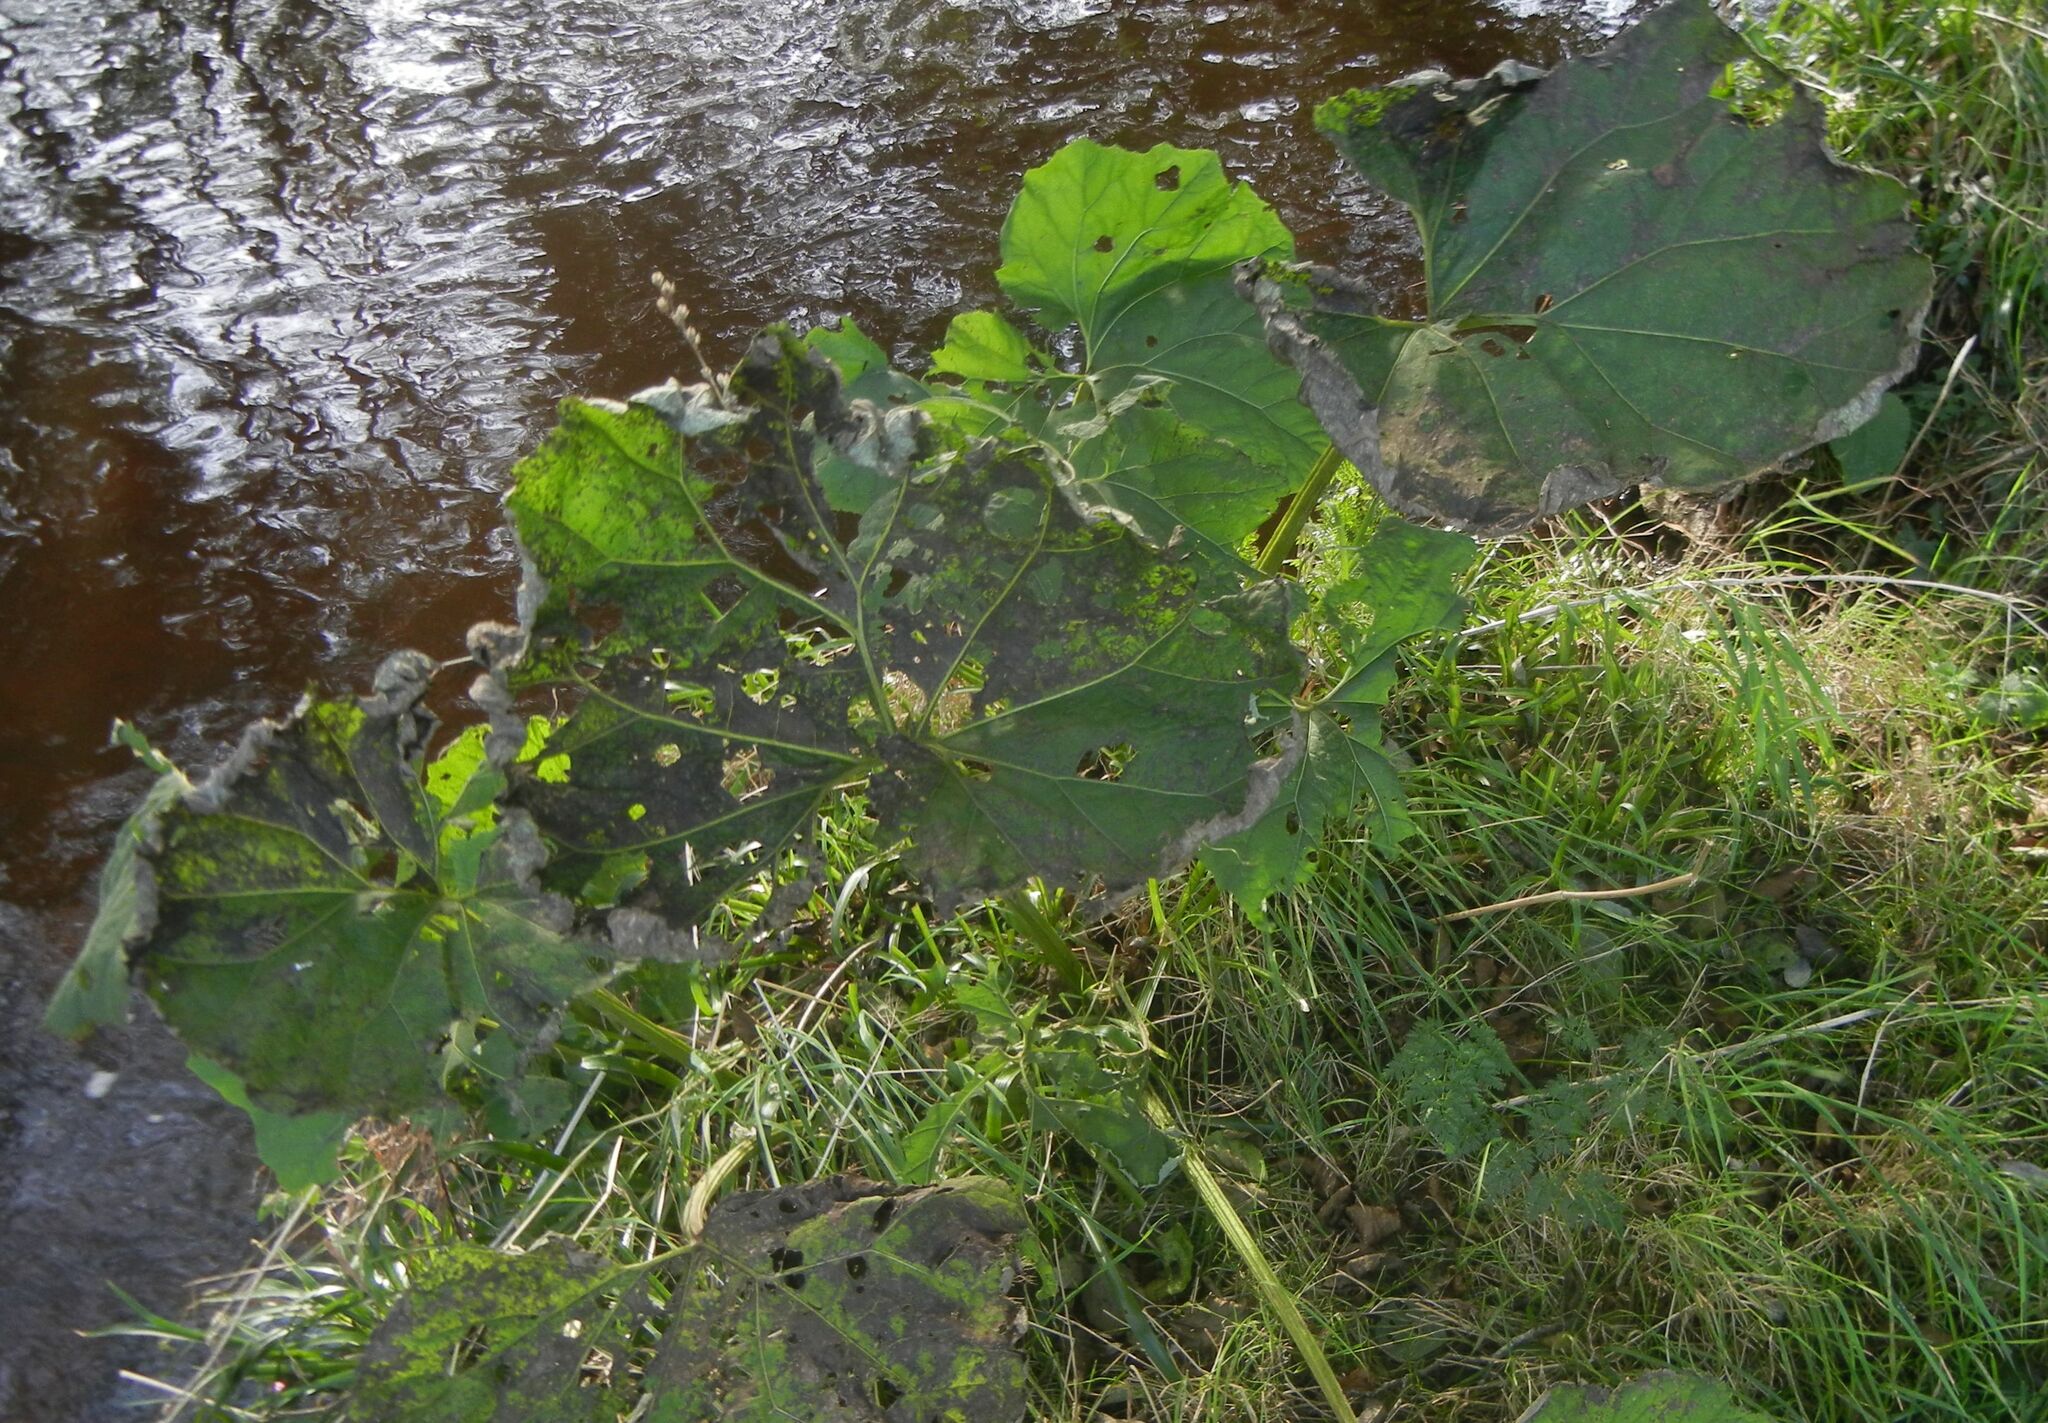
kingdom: Plantae
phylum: Tracheophyta
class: Magnoliopsida
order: Asterales
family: Asteraceae
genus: Petasites
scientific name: Petasites hybridus
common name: Butterbur
